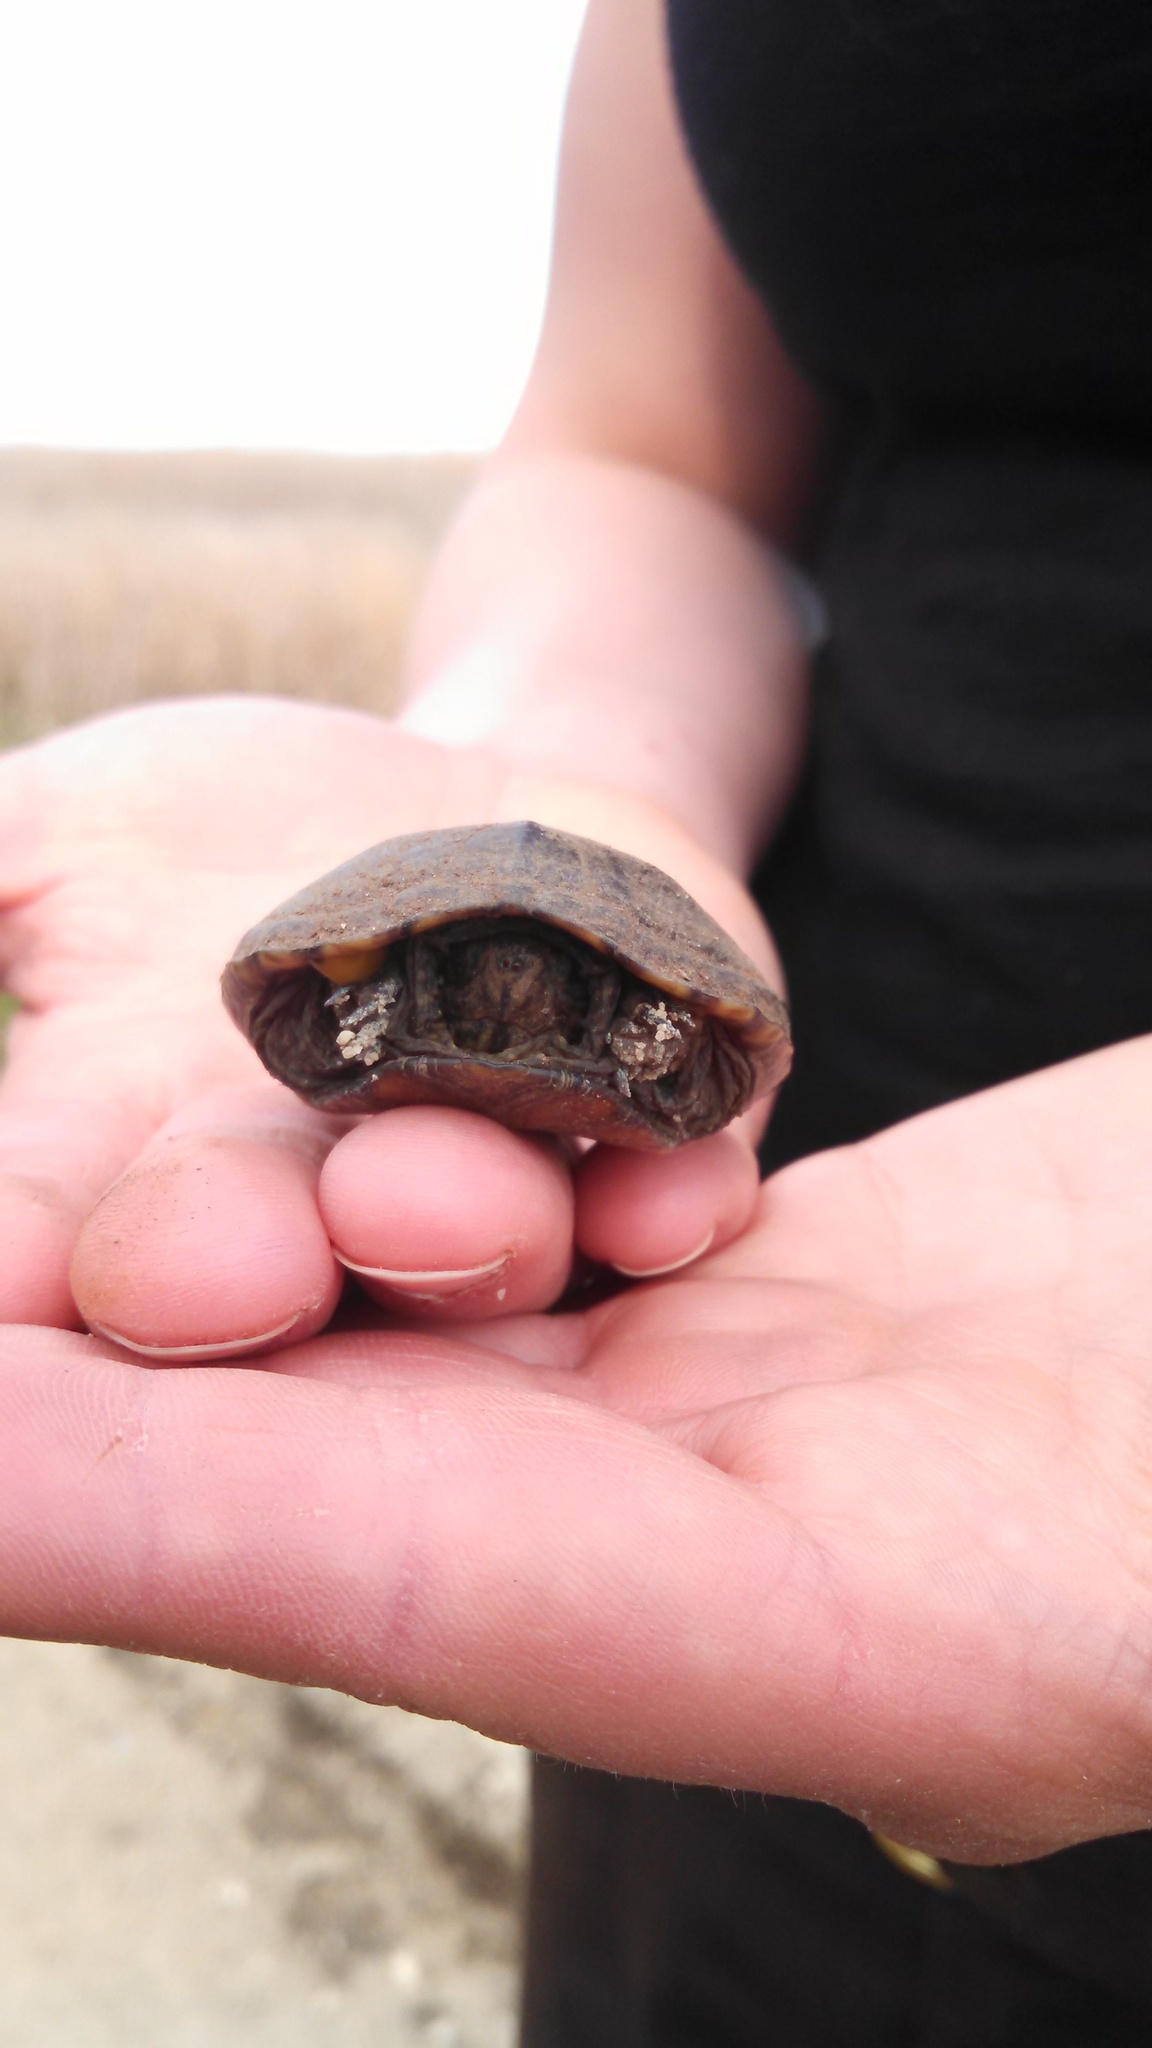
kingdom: Animalia
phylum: Chordata
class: Testudines
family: Kinosternidae
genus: Kinosternon
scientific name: Kinosternon subrubrum
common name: Eastern mud turtle
